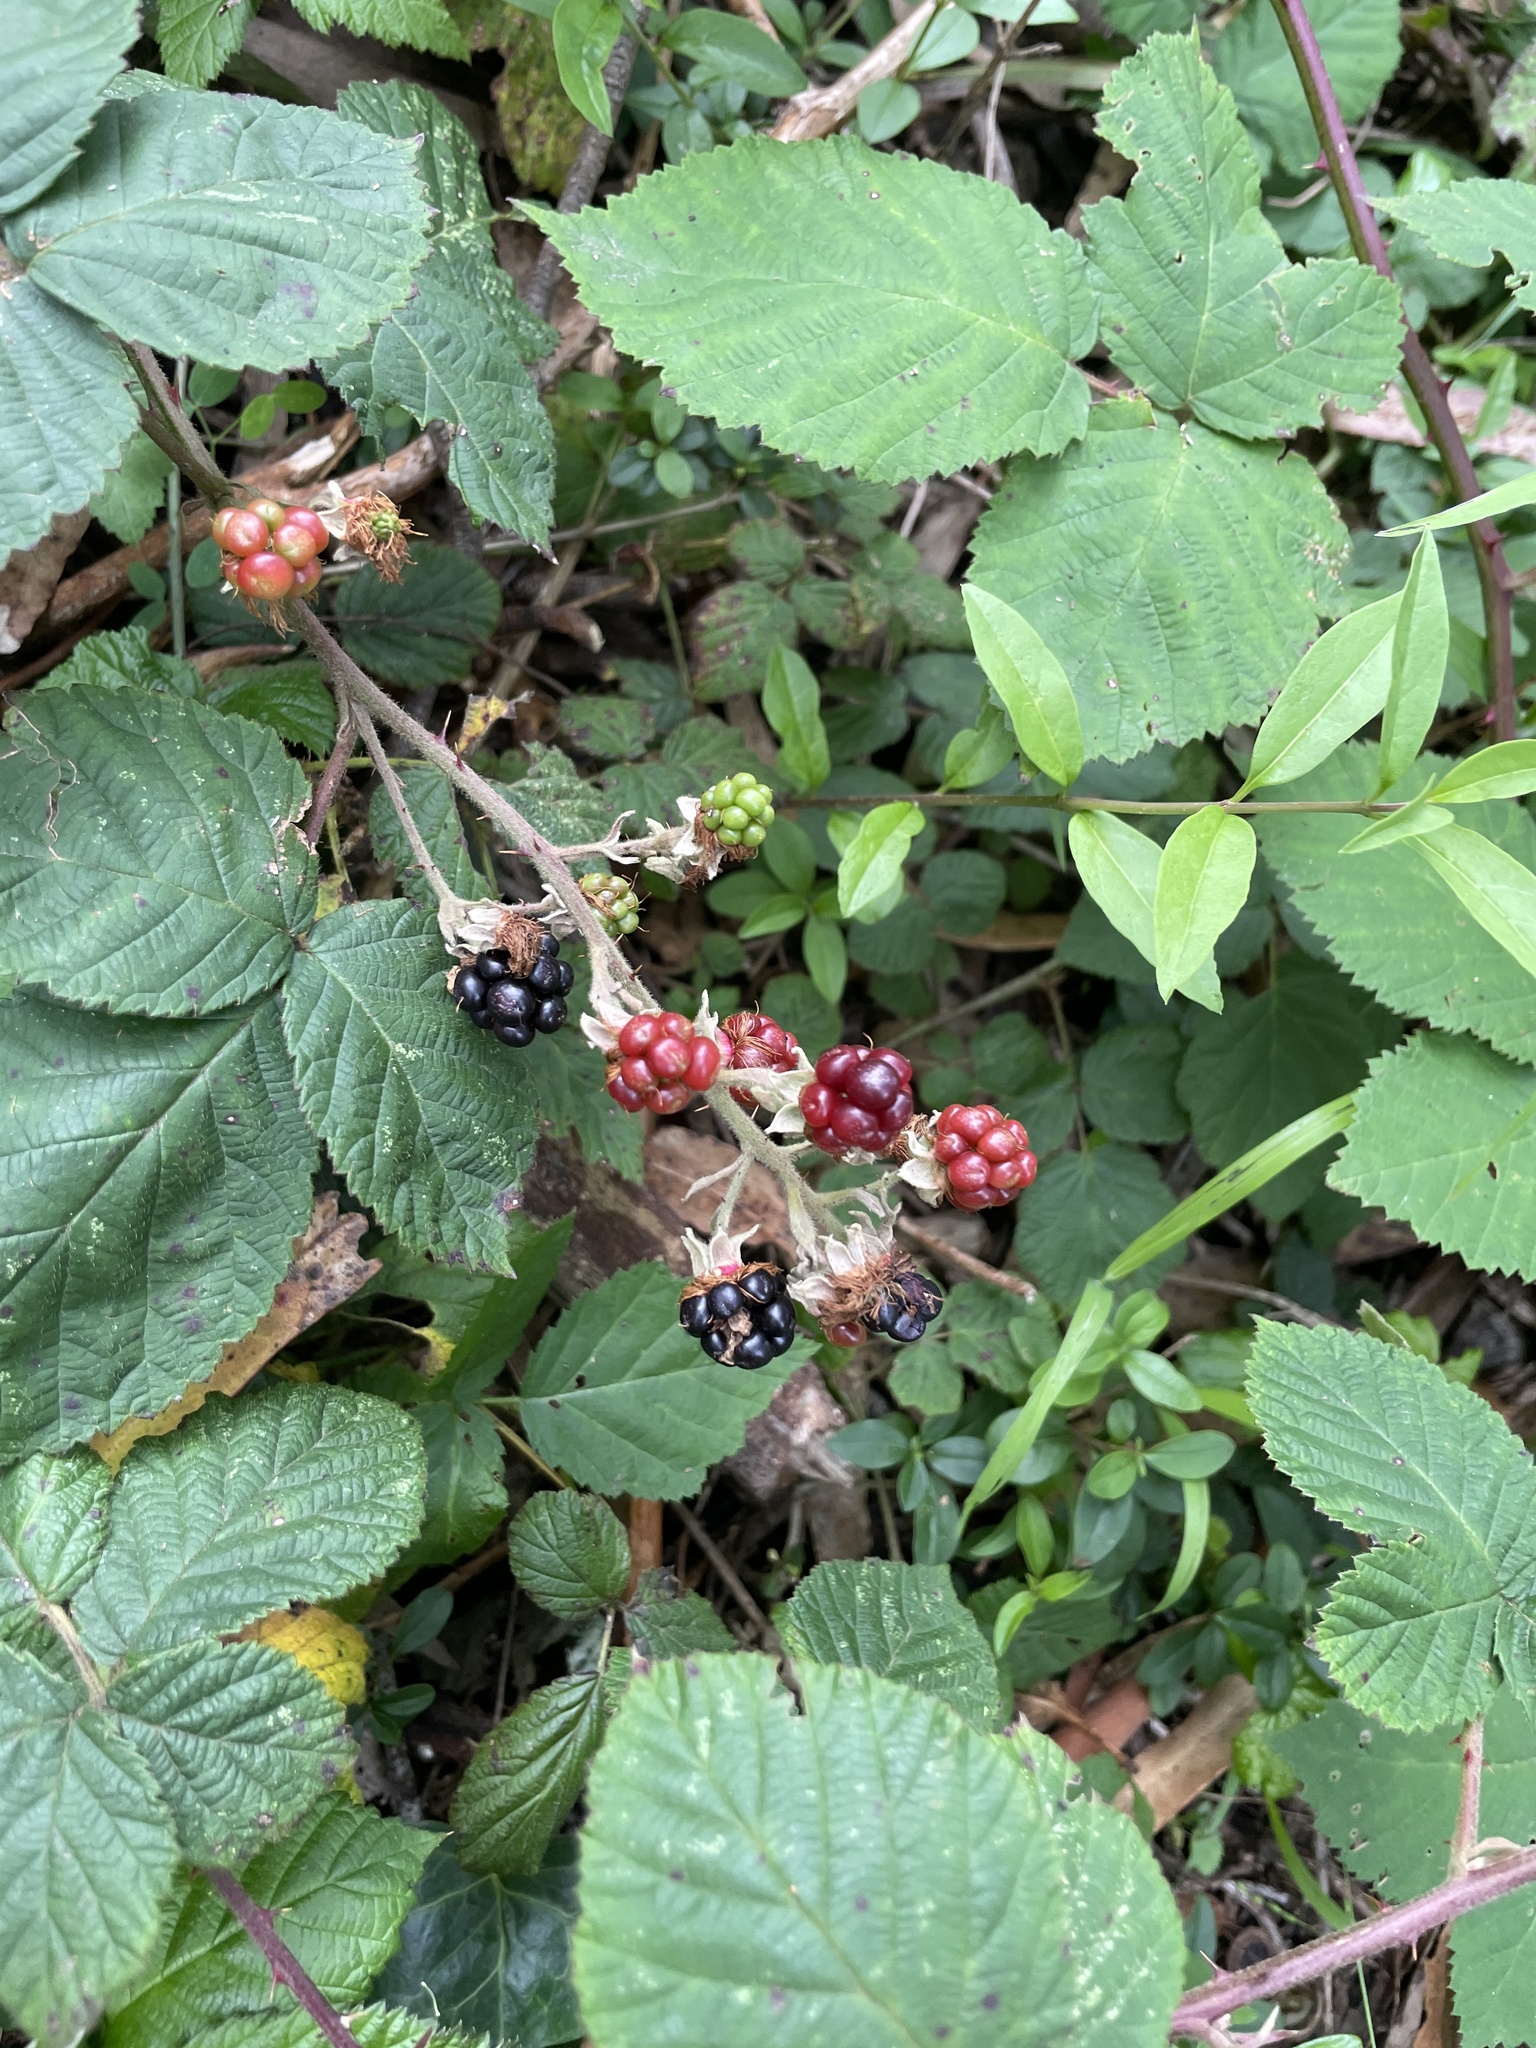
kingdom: Plantae
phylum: Tracheophyta
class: Magnoliopsida
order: Rosales
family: Rosaceae
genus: Rubus
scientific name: Rubus armeniacus
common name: Himalayan blackberry
